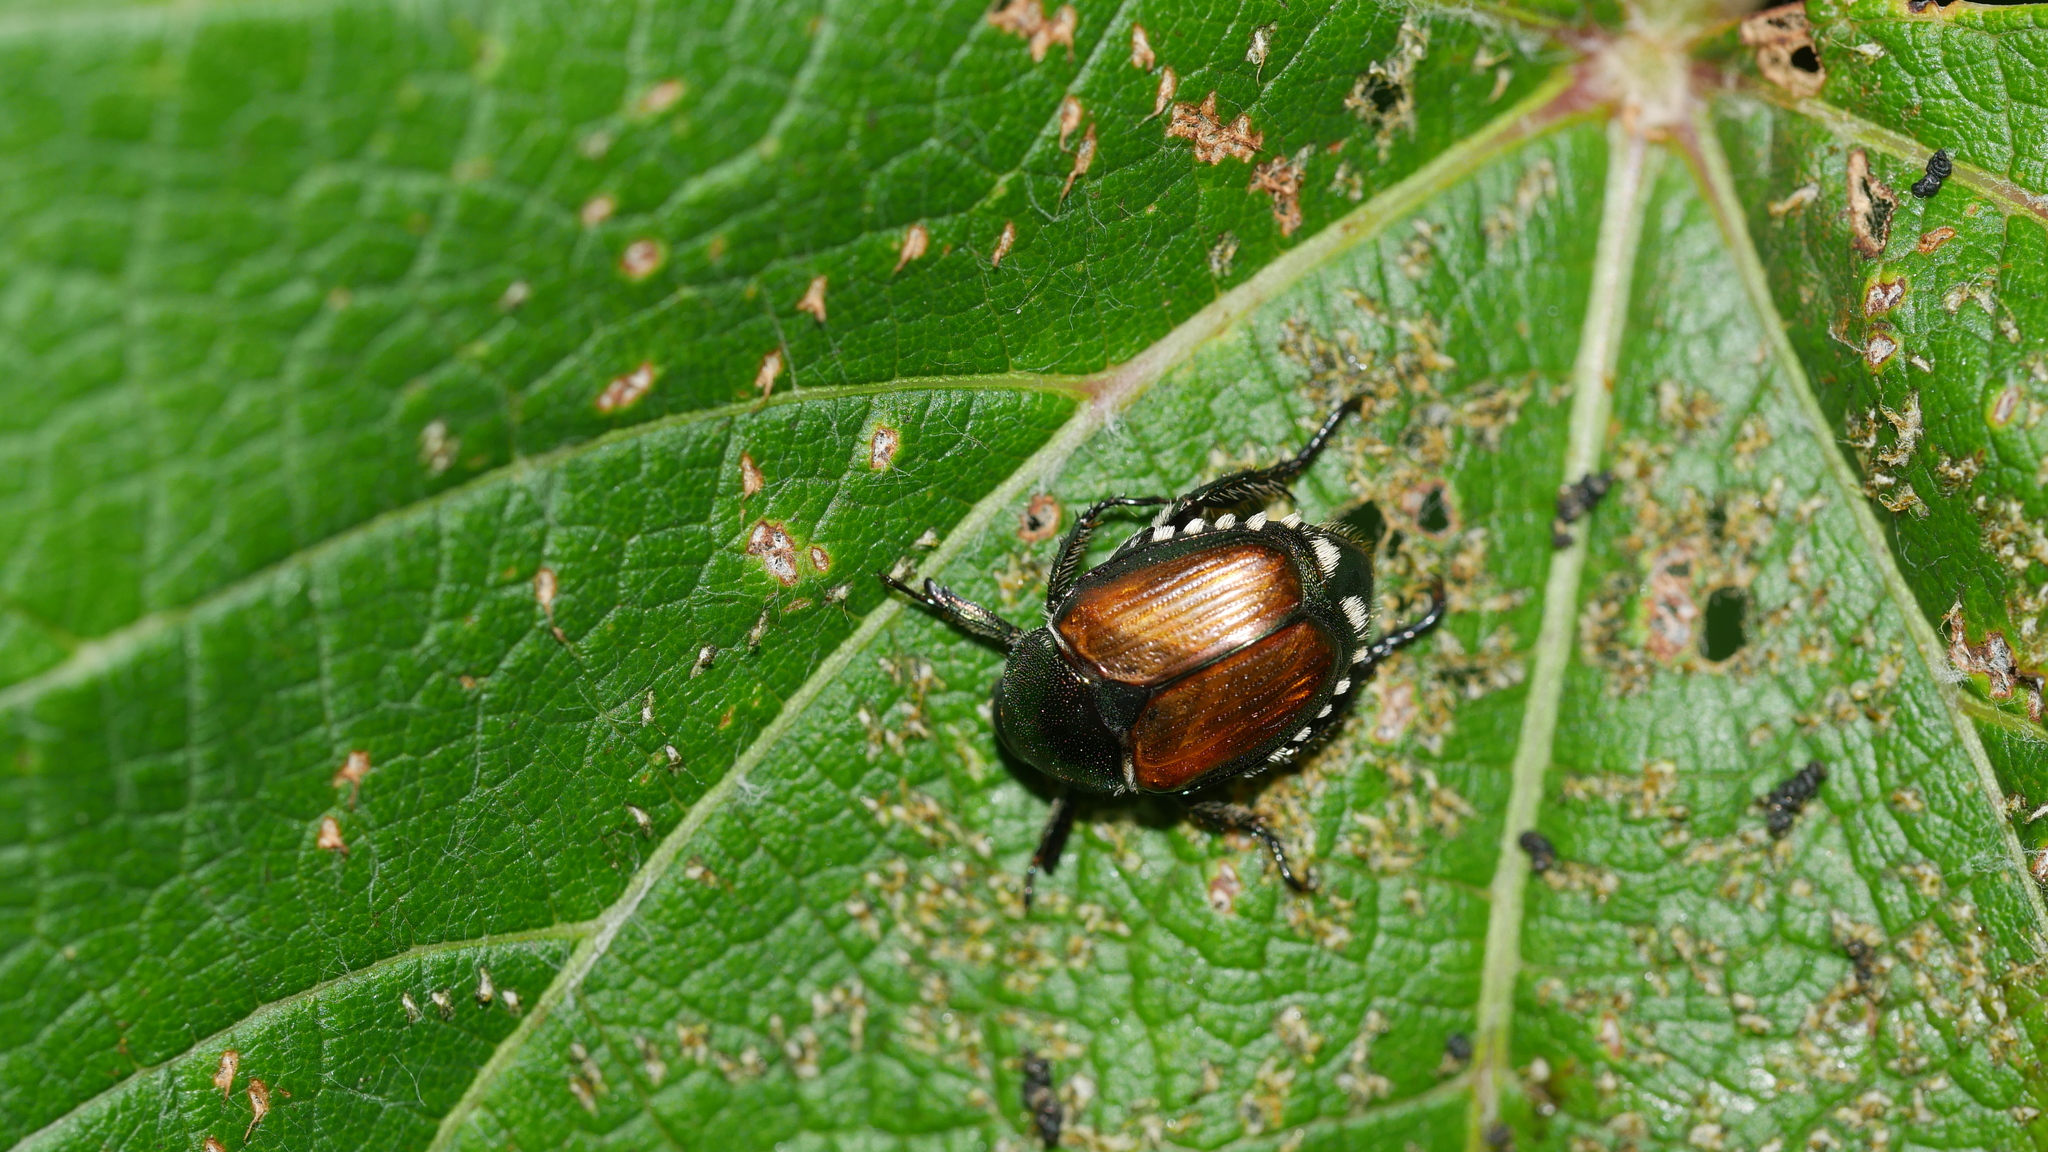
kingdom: Animalia
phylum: Arthropoda
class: Insecta
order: Coleoptera
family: Scarabaeidae
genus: Popillia
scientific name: Popillia japonica
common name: Japanese beetle
